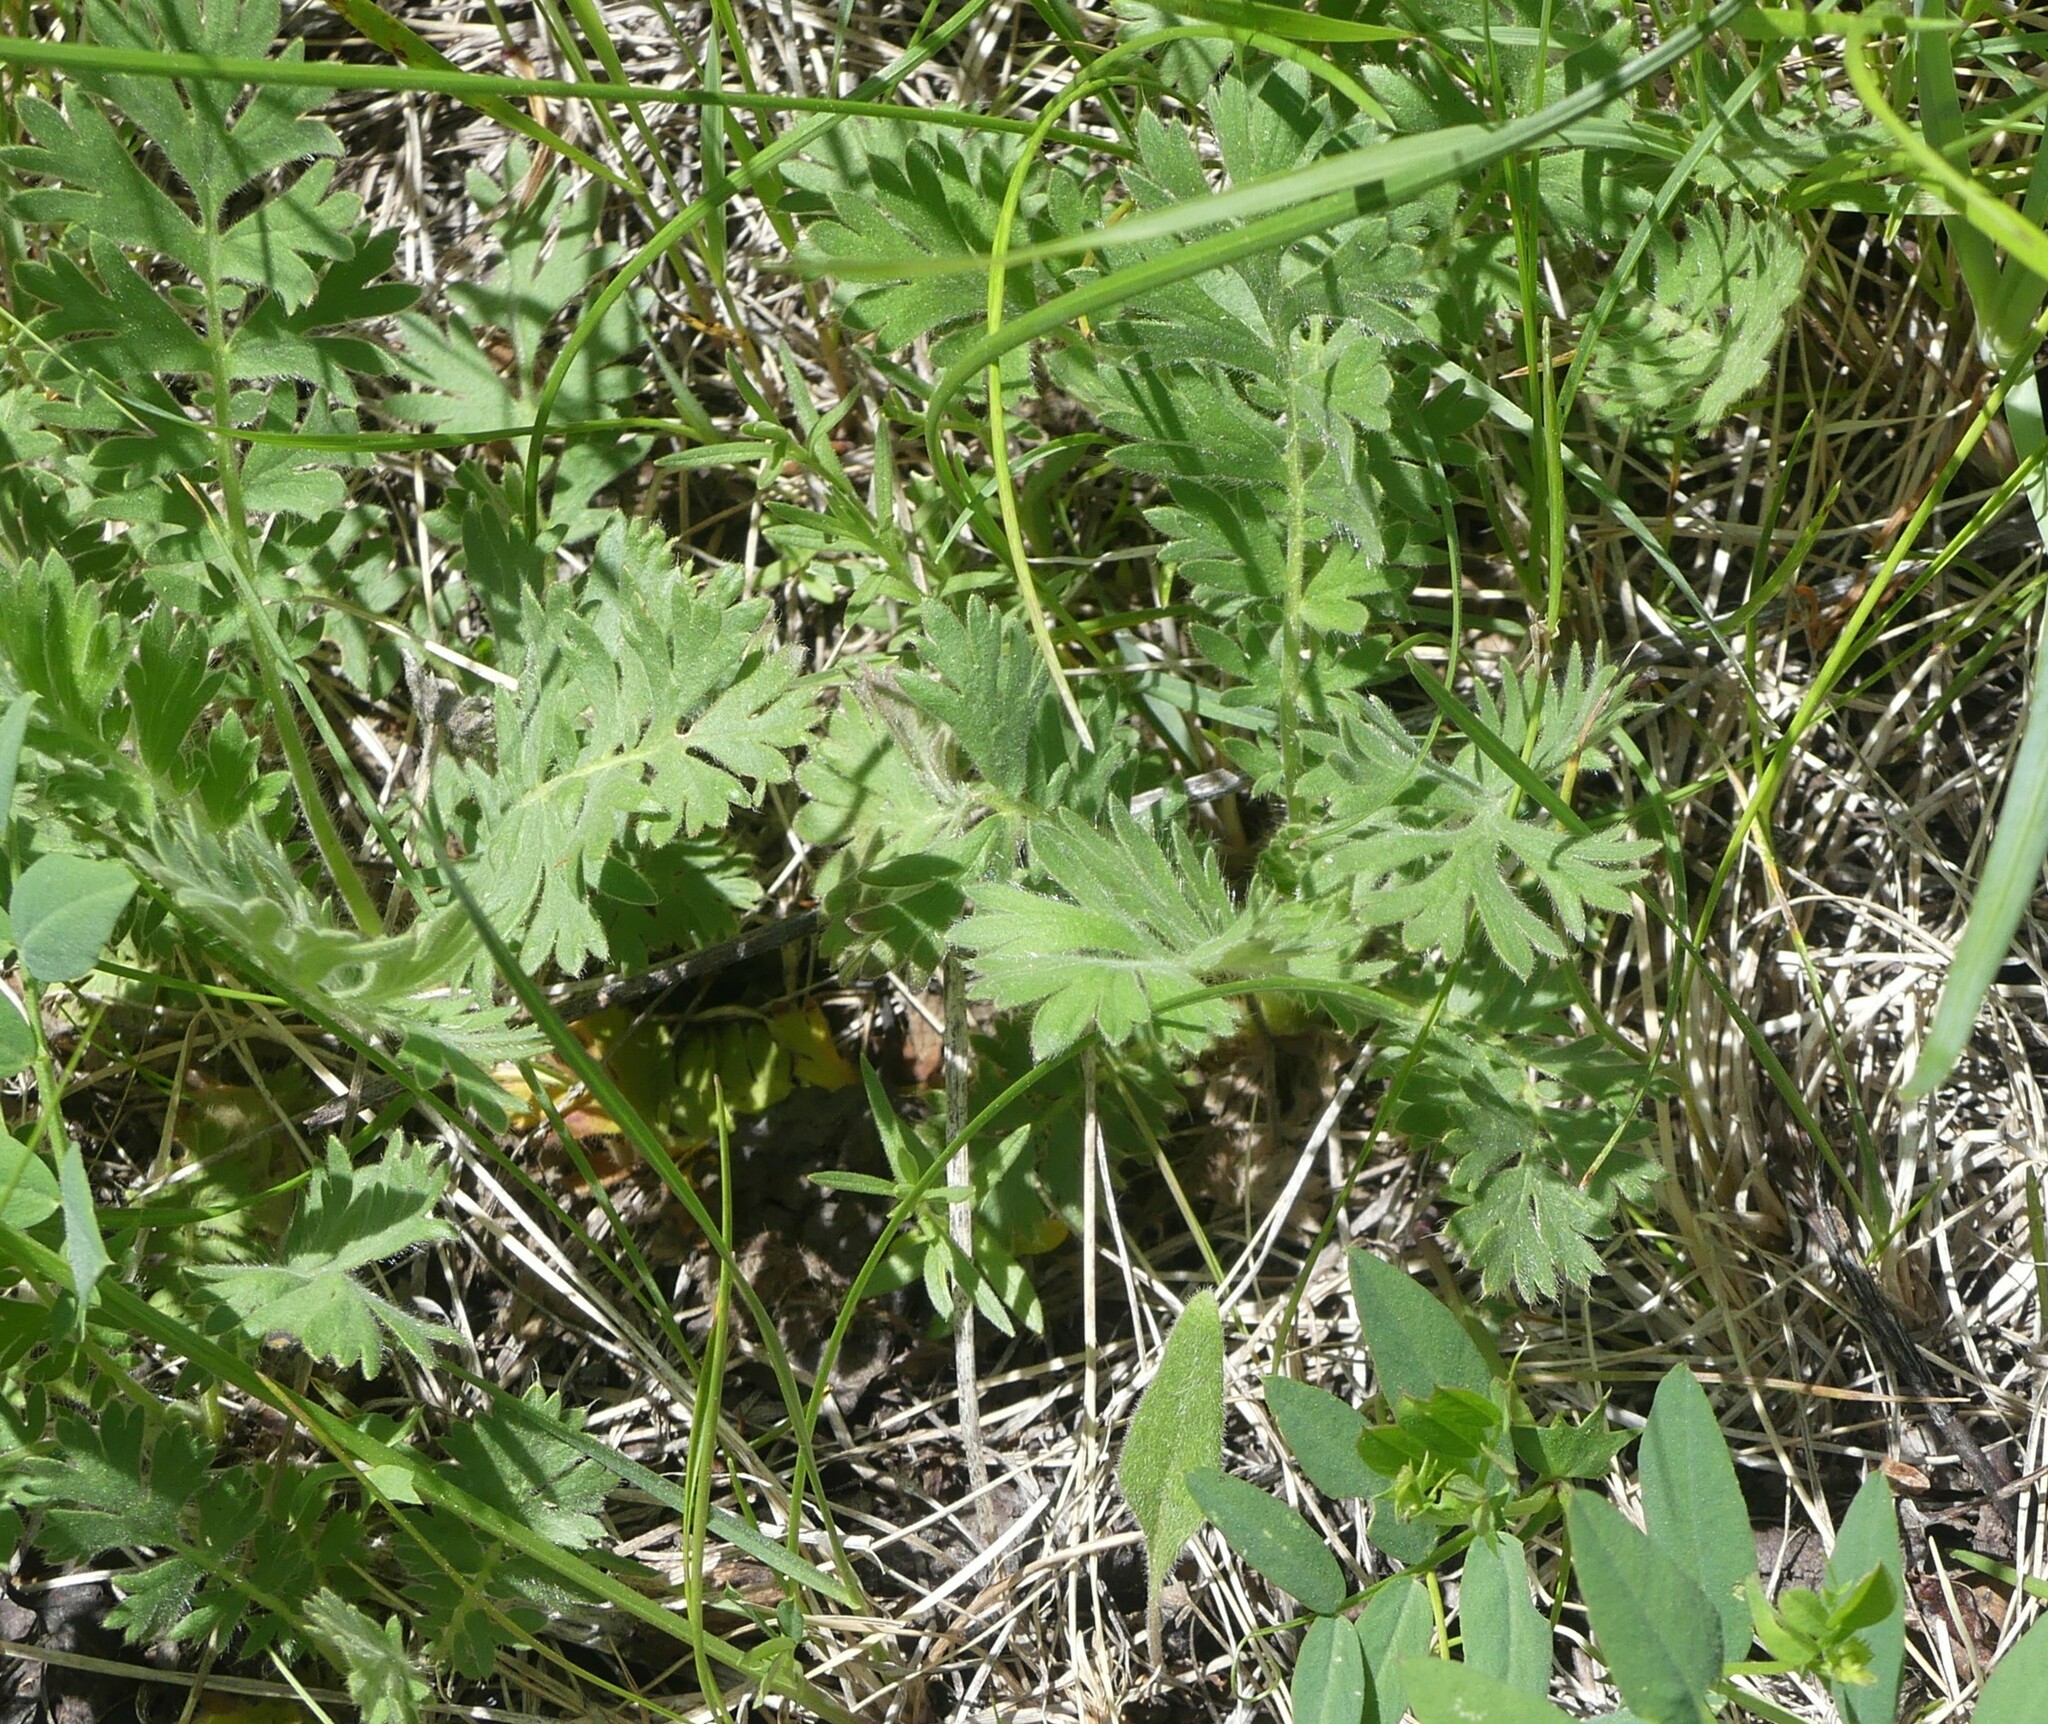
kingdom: Plantae
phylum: Tracheophyta
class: Magnoliopsida
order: Rosales
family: Rosaceae
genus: Geum
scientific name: Geum triflorum
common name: Old man's whiskers
